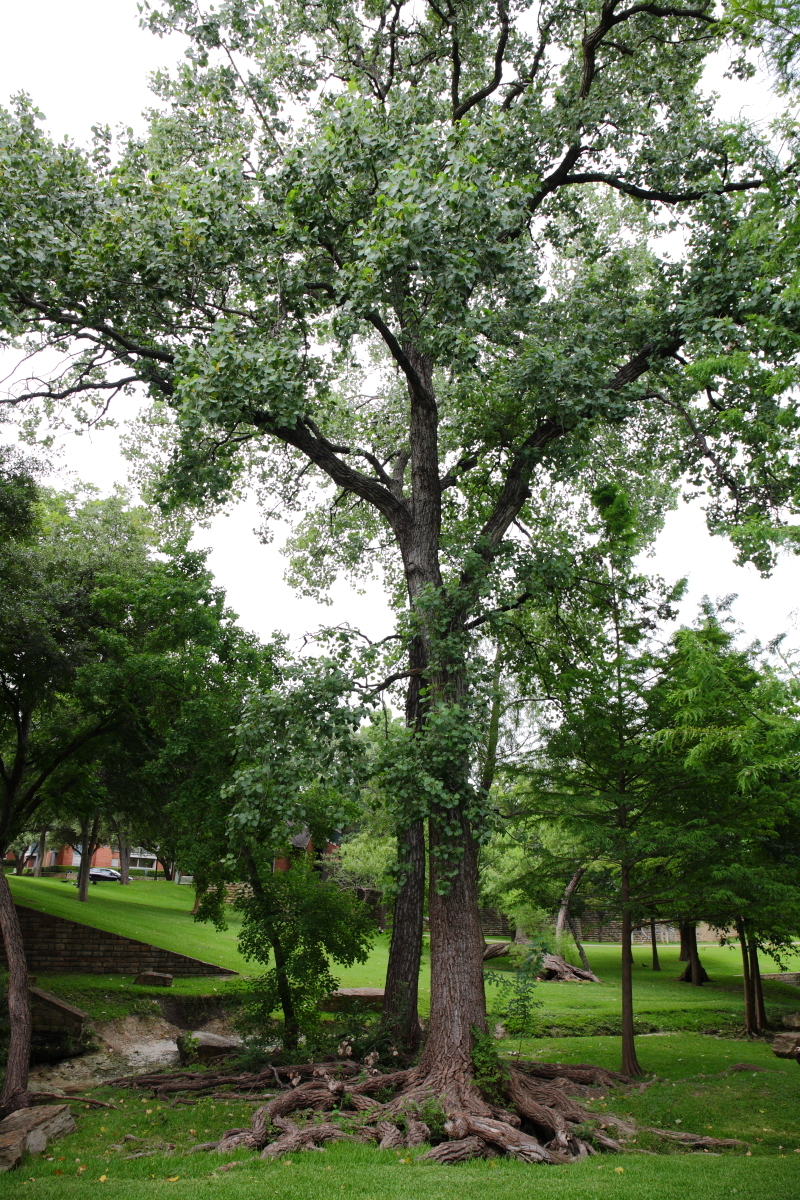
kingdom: Plantae
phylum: Tracheophyta
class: Magnoliopsida
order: Malpighiales
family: Salicaceae
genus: Populus
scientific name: Populus deltoides
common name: Eastern cottonwood
